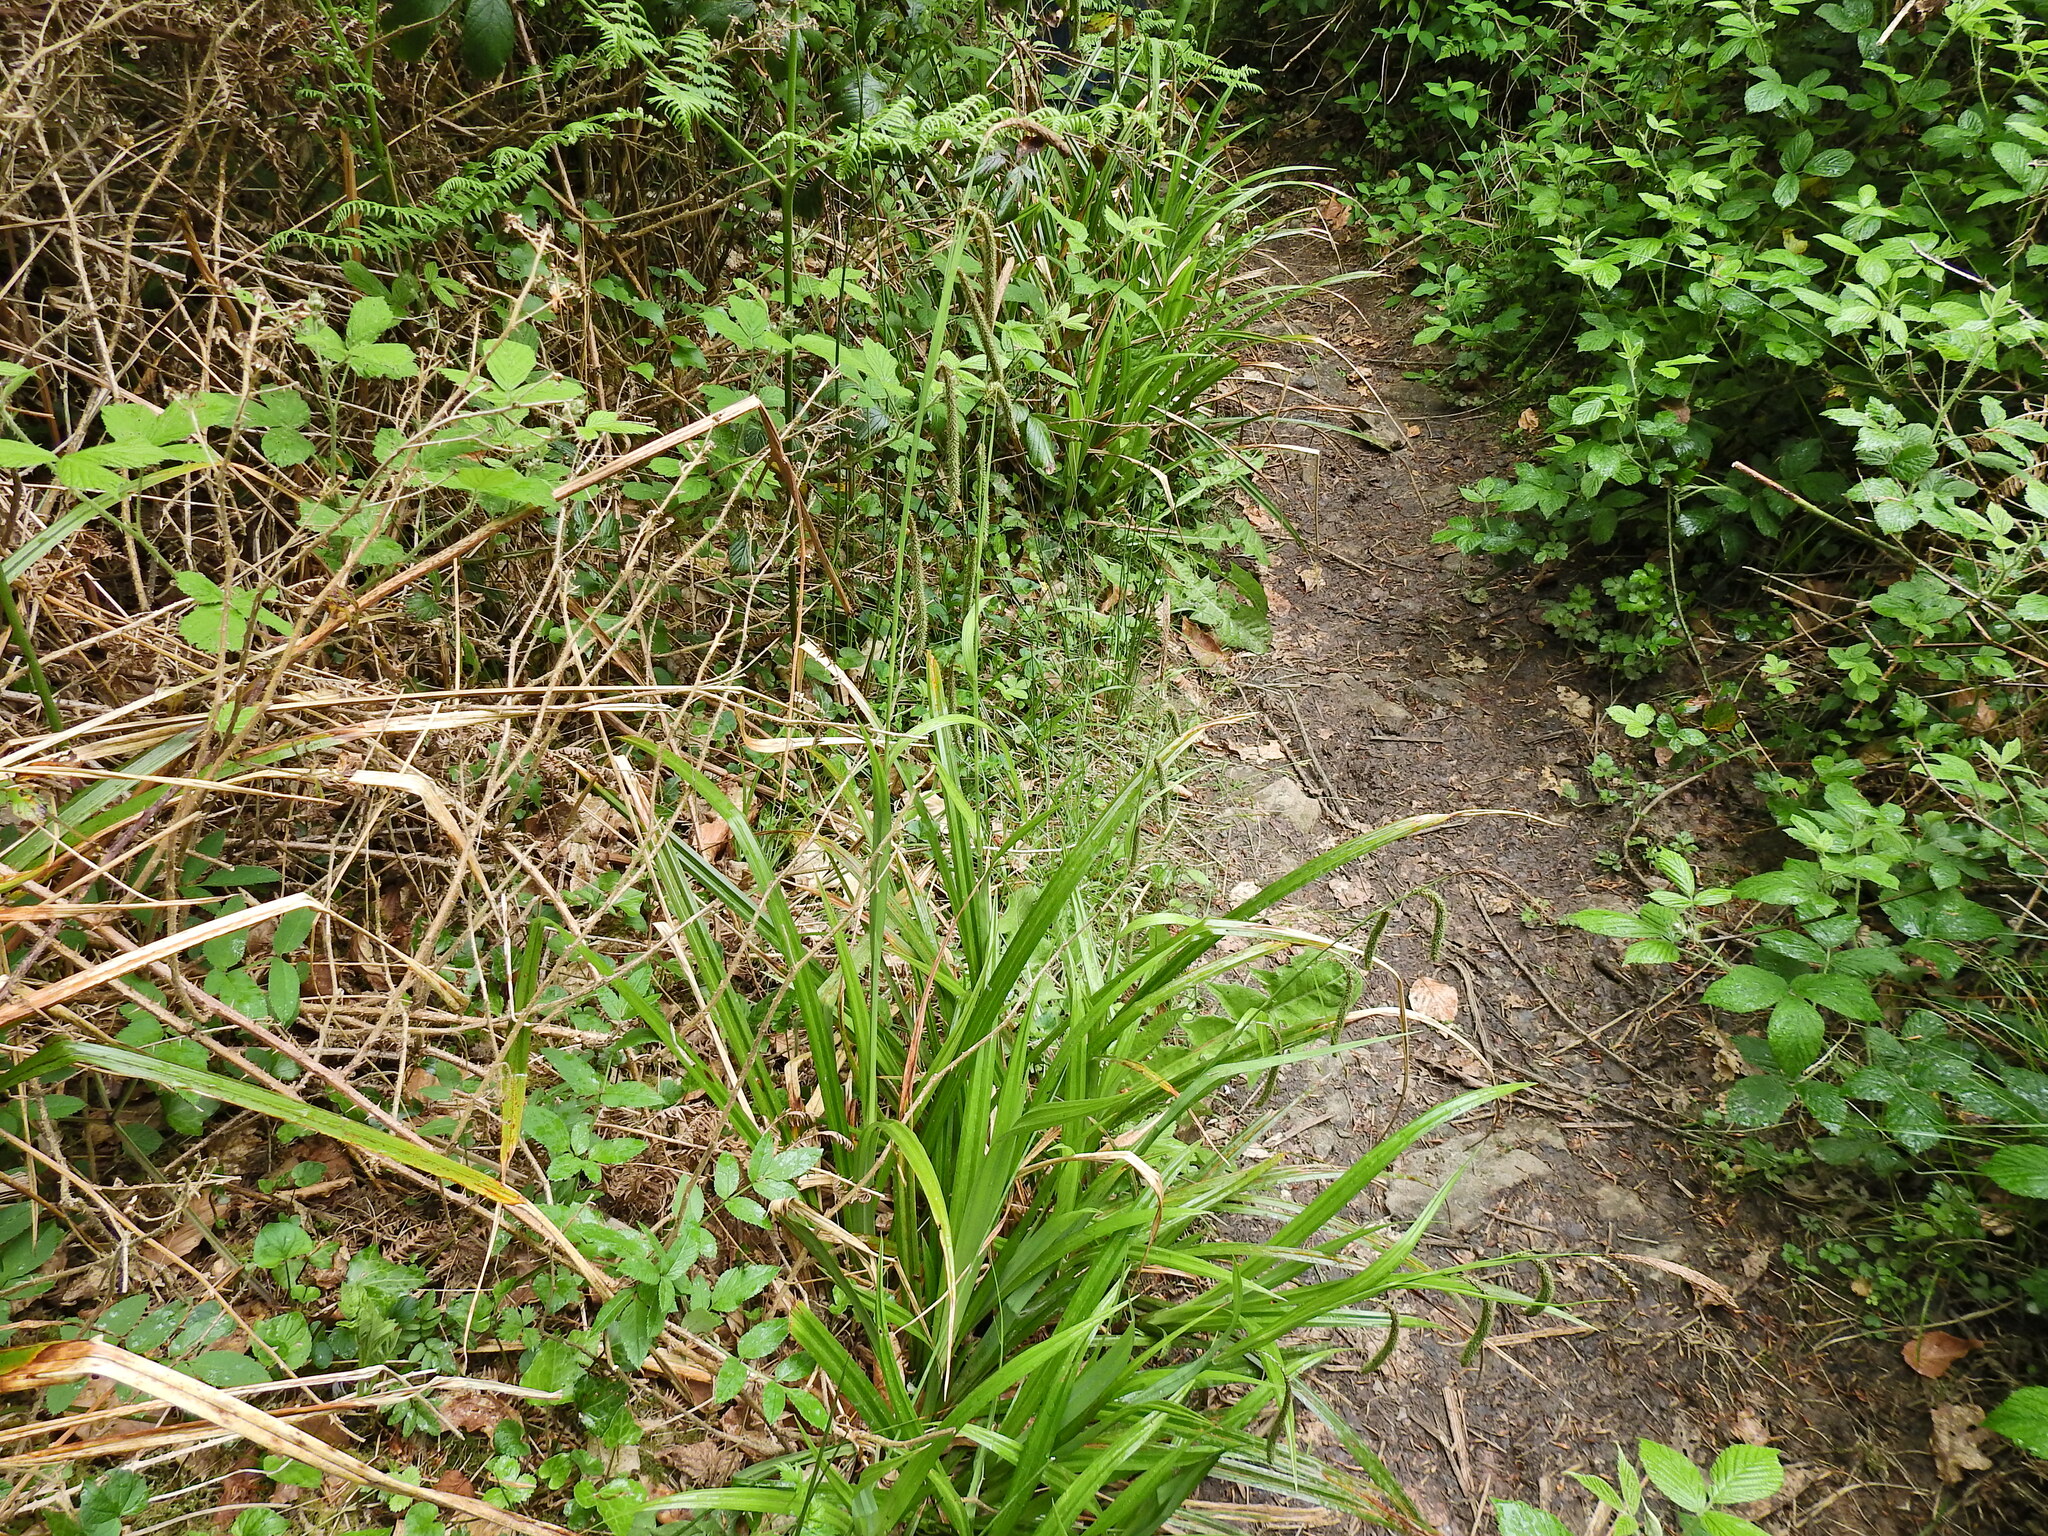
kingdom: Plantae
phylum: Tracheophyta
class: Liliopsida
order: Poales
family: Cyperaceae
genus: Carex
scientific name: Carex pendula
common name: Pendulous sedge
